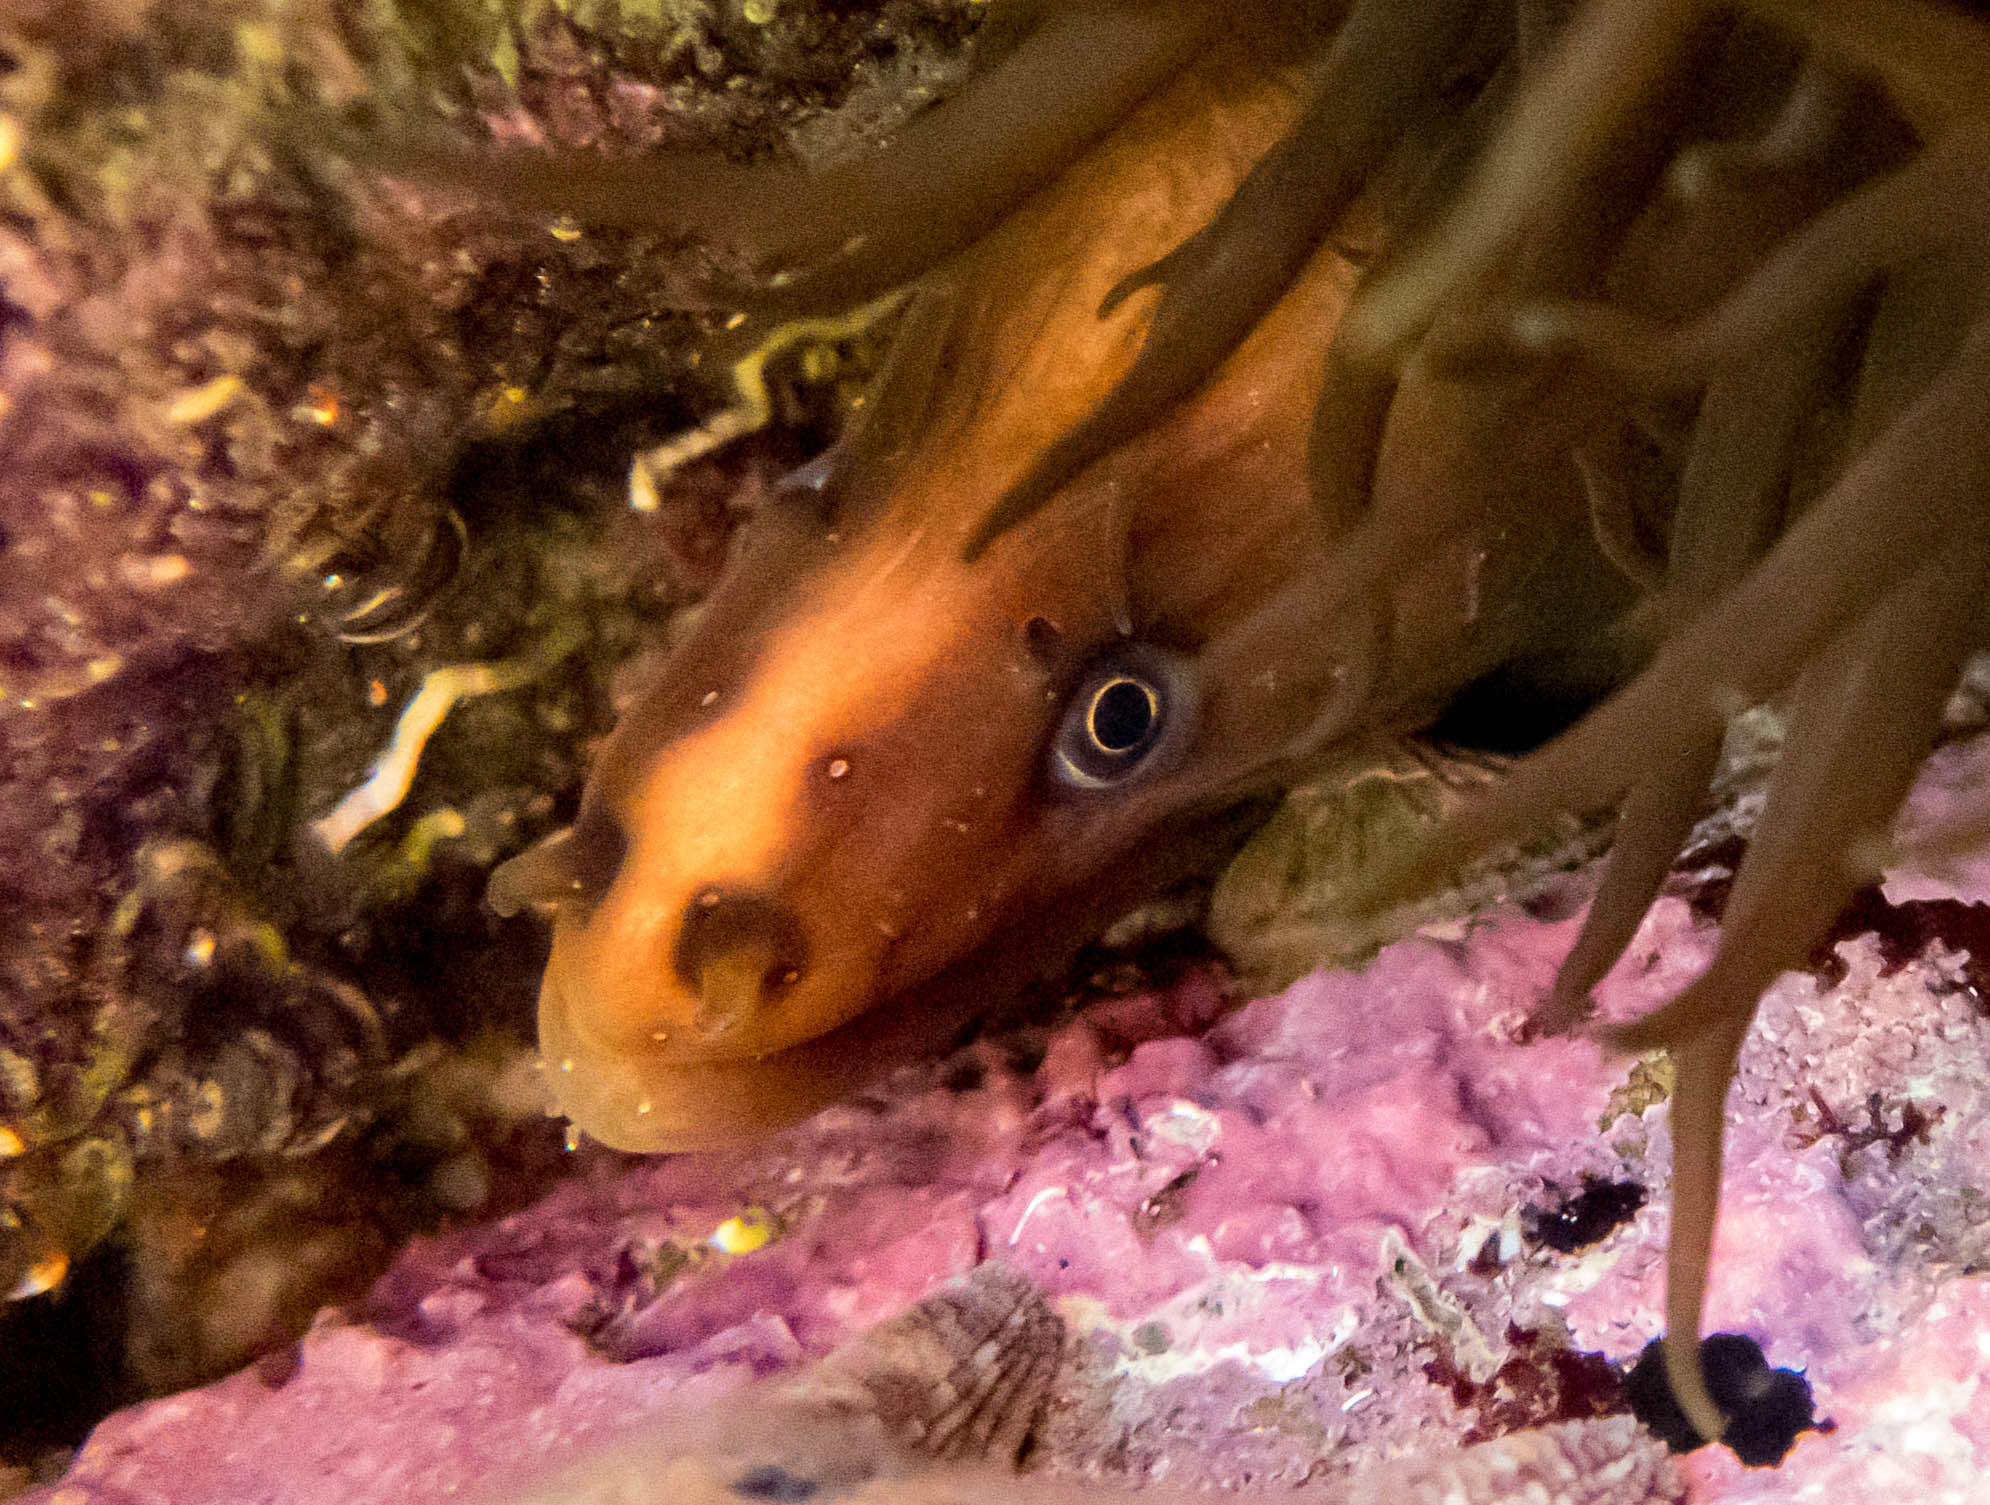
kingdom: Animalia
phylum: Chordata
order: Anguilliformes
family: Muraenidae
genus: Gymnothorax
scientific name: Gymnothorax prasinus
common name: Yellow moray
